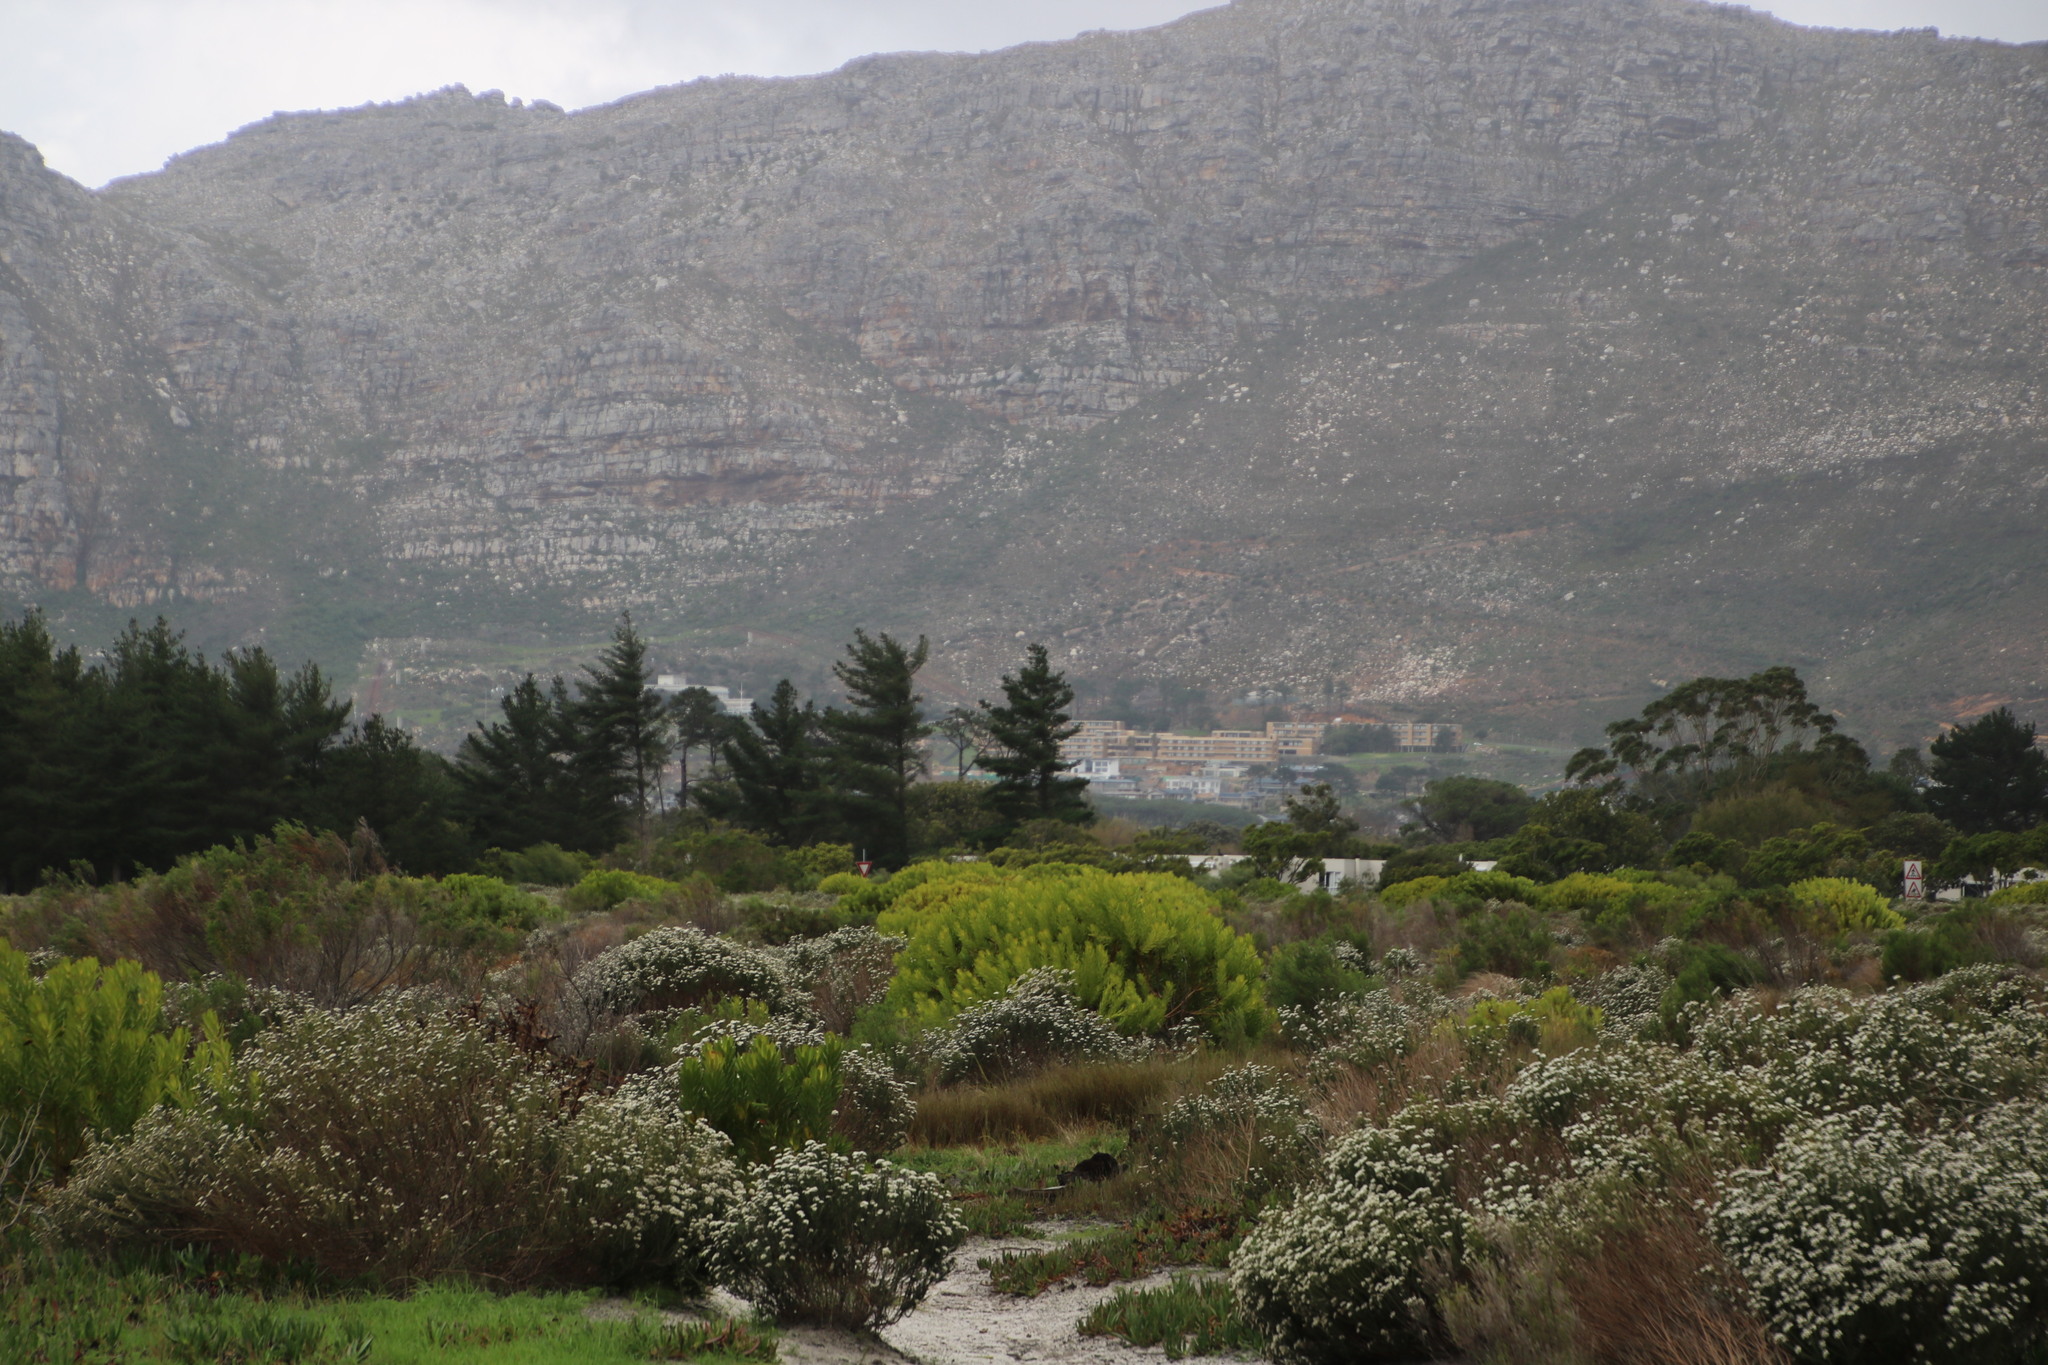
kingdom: Plantae
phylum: Tracheophyta
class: Magnoliopsida
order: Asterales
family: Asteraceae
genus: Metalasia
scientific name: Metalasia densa
